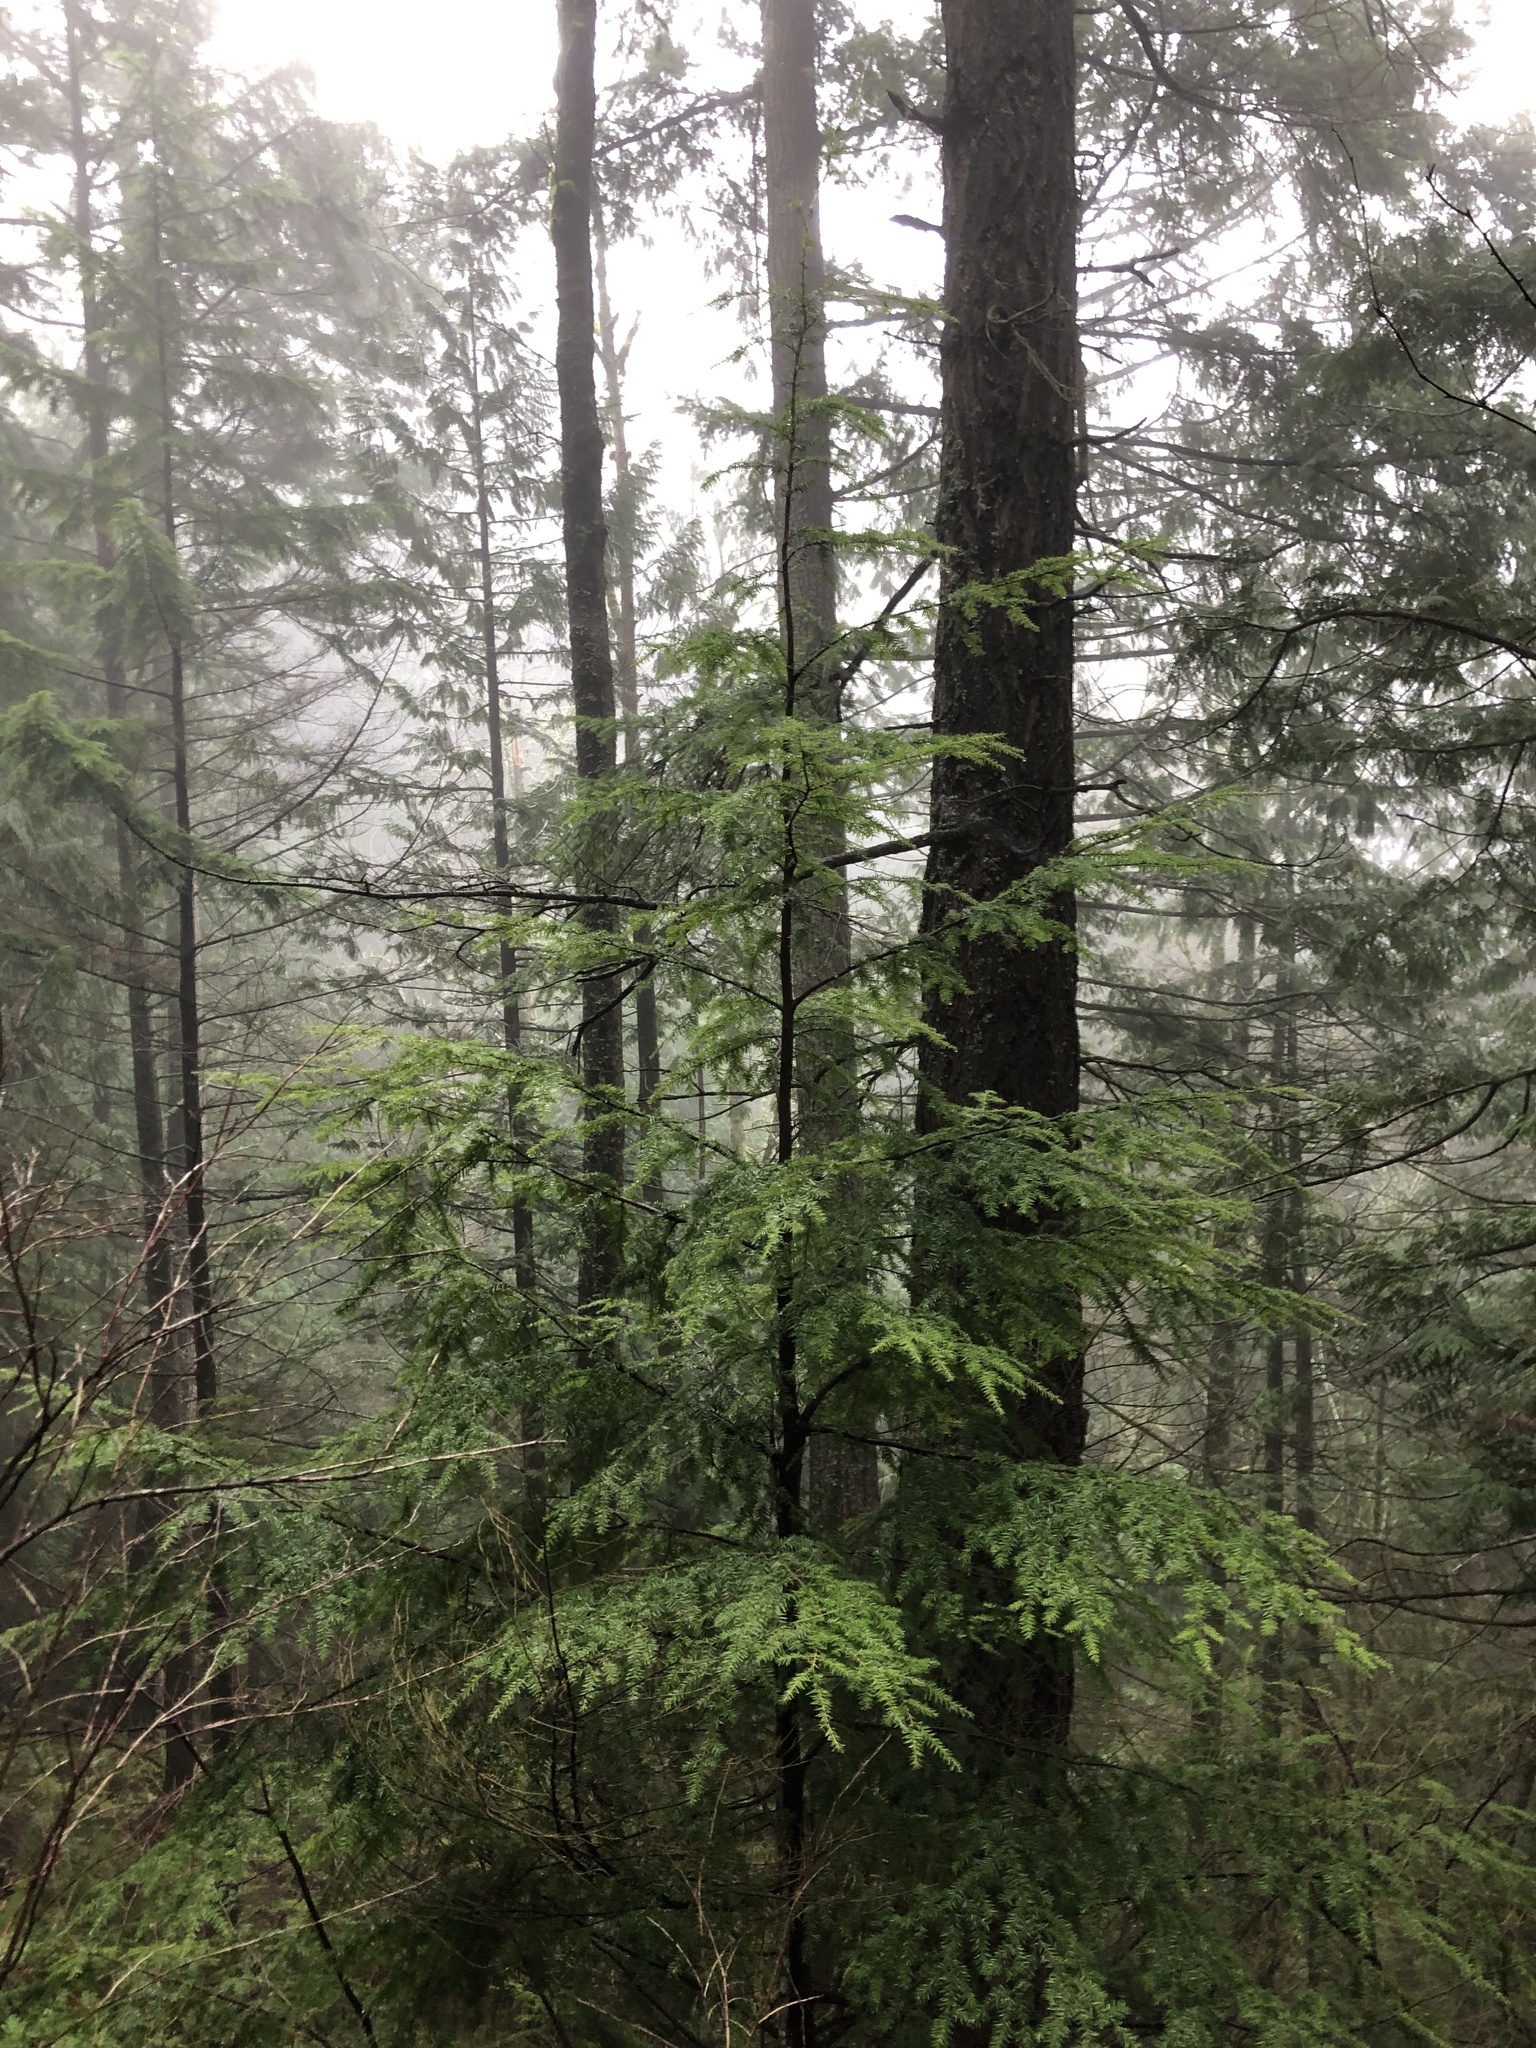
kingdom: Plantae
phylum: Tracheophyta
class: Pinopsida
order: Pinales
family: Pinaceae
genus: Tsuga
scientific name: Tsuga heterophylla
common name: Western hemlock
